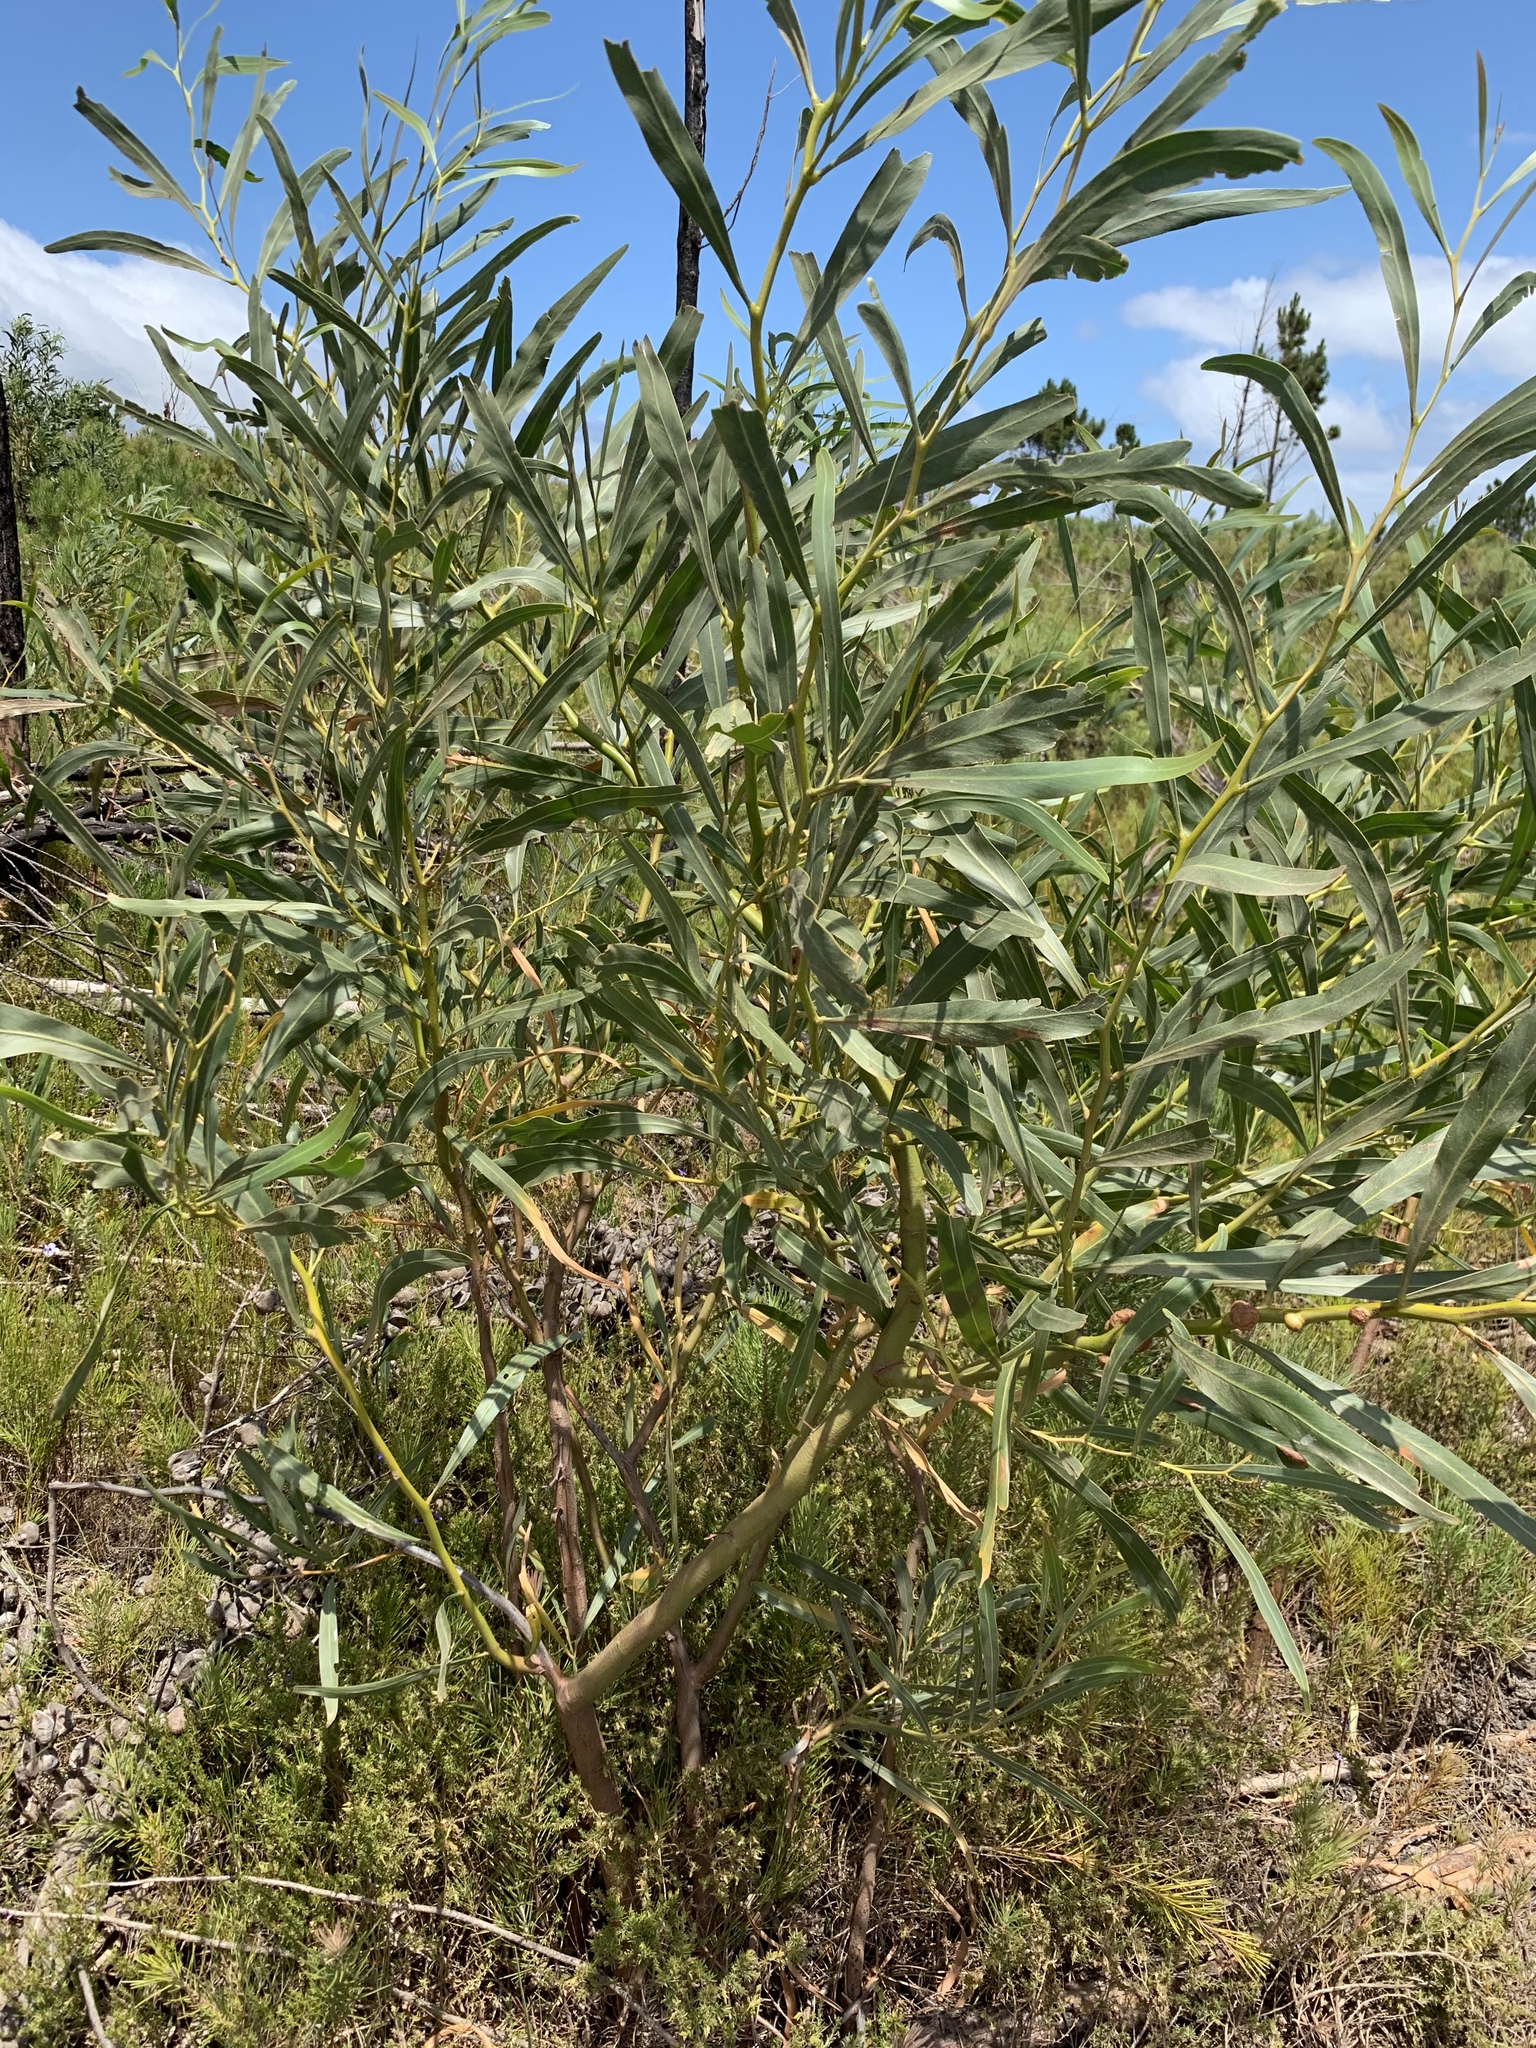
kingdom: Plantae
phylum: Tracheophyta
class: Magnoliopsida
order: Fabales
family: Fabaceae
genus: Acacia
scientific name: Acacia saligna
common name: Orange wattle
